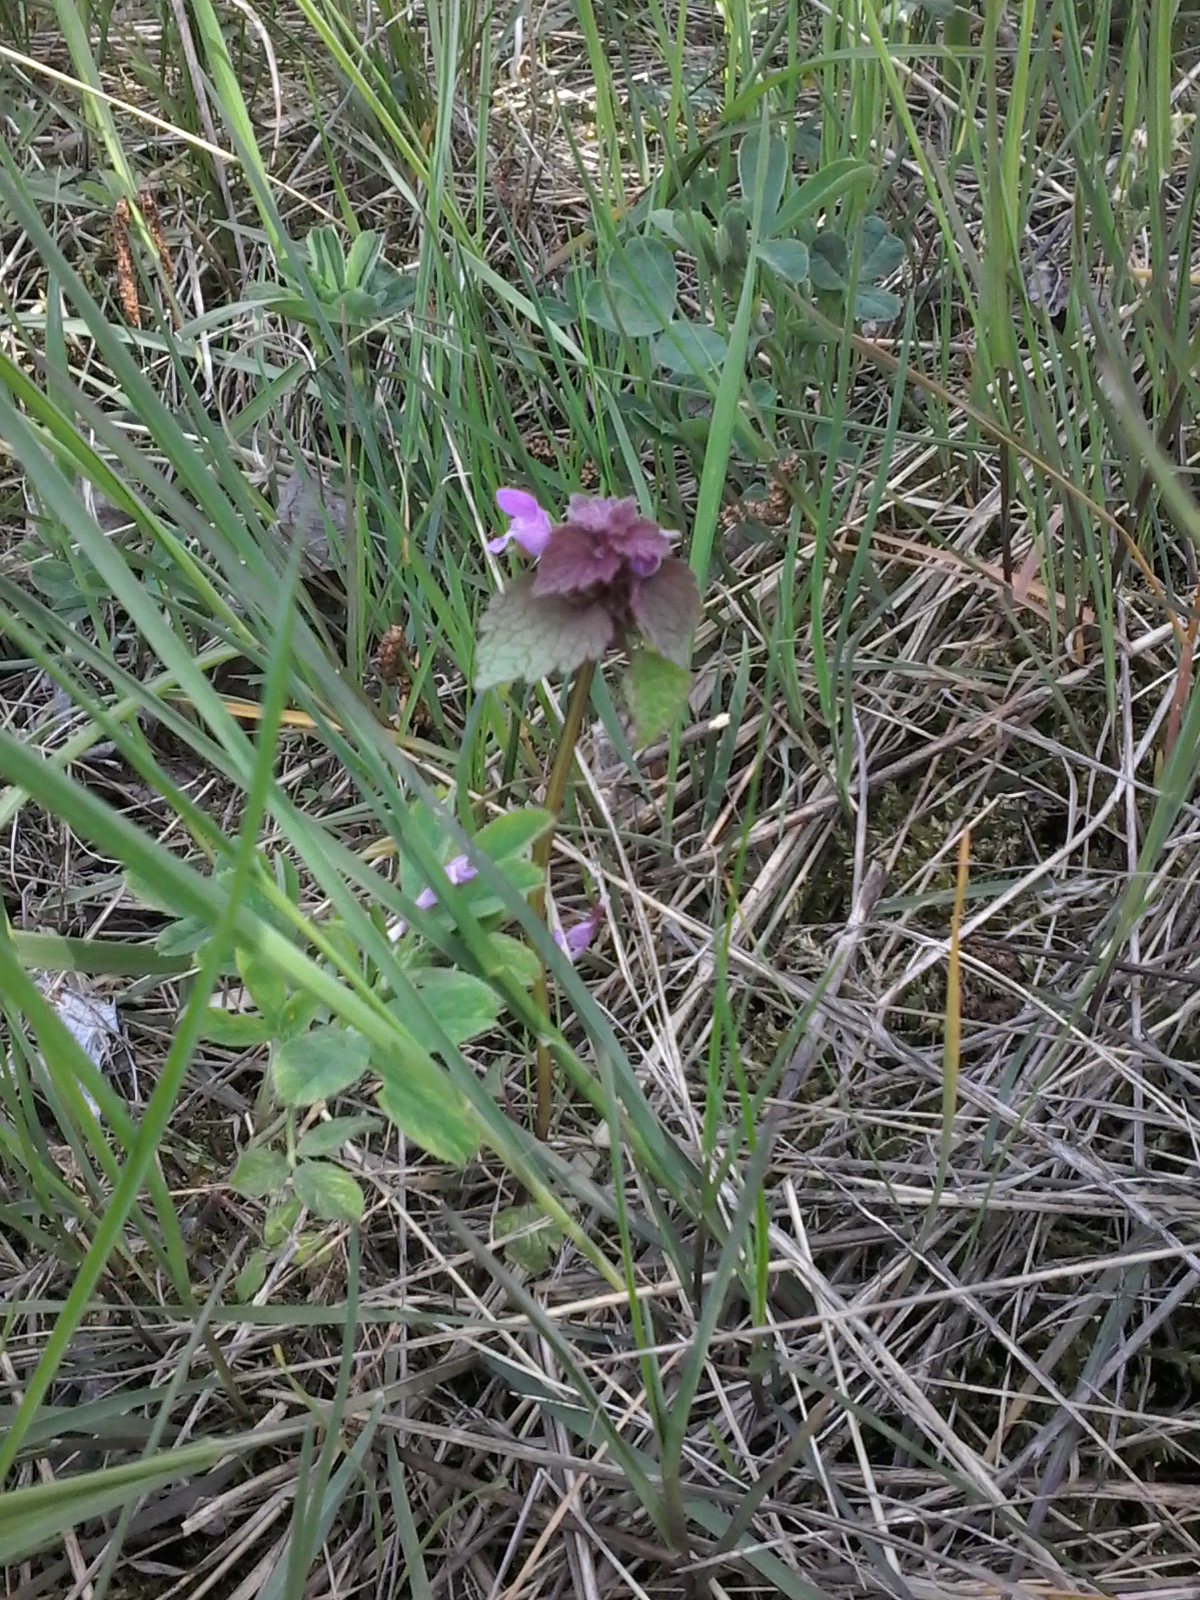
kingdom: Plantae
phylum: Tracheophyta
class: Magnoliopsida
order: Lamiales
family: Lamiaceae
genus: Lamium
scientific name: Lamium purpureum
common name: Red dead-nettle
